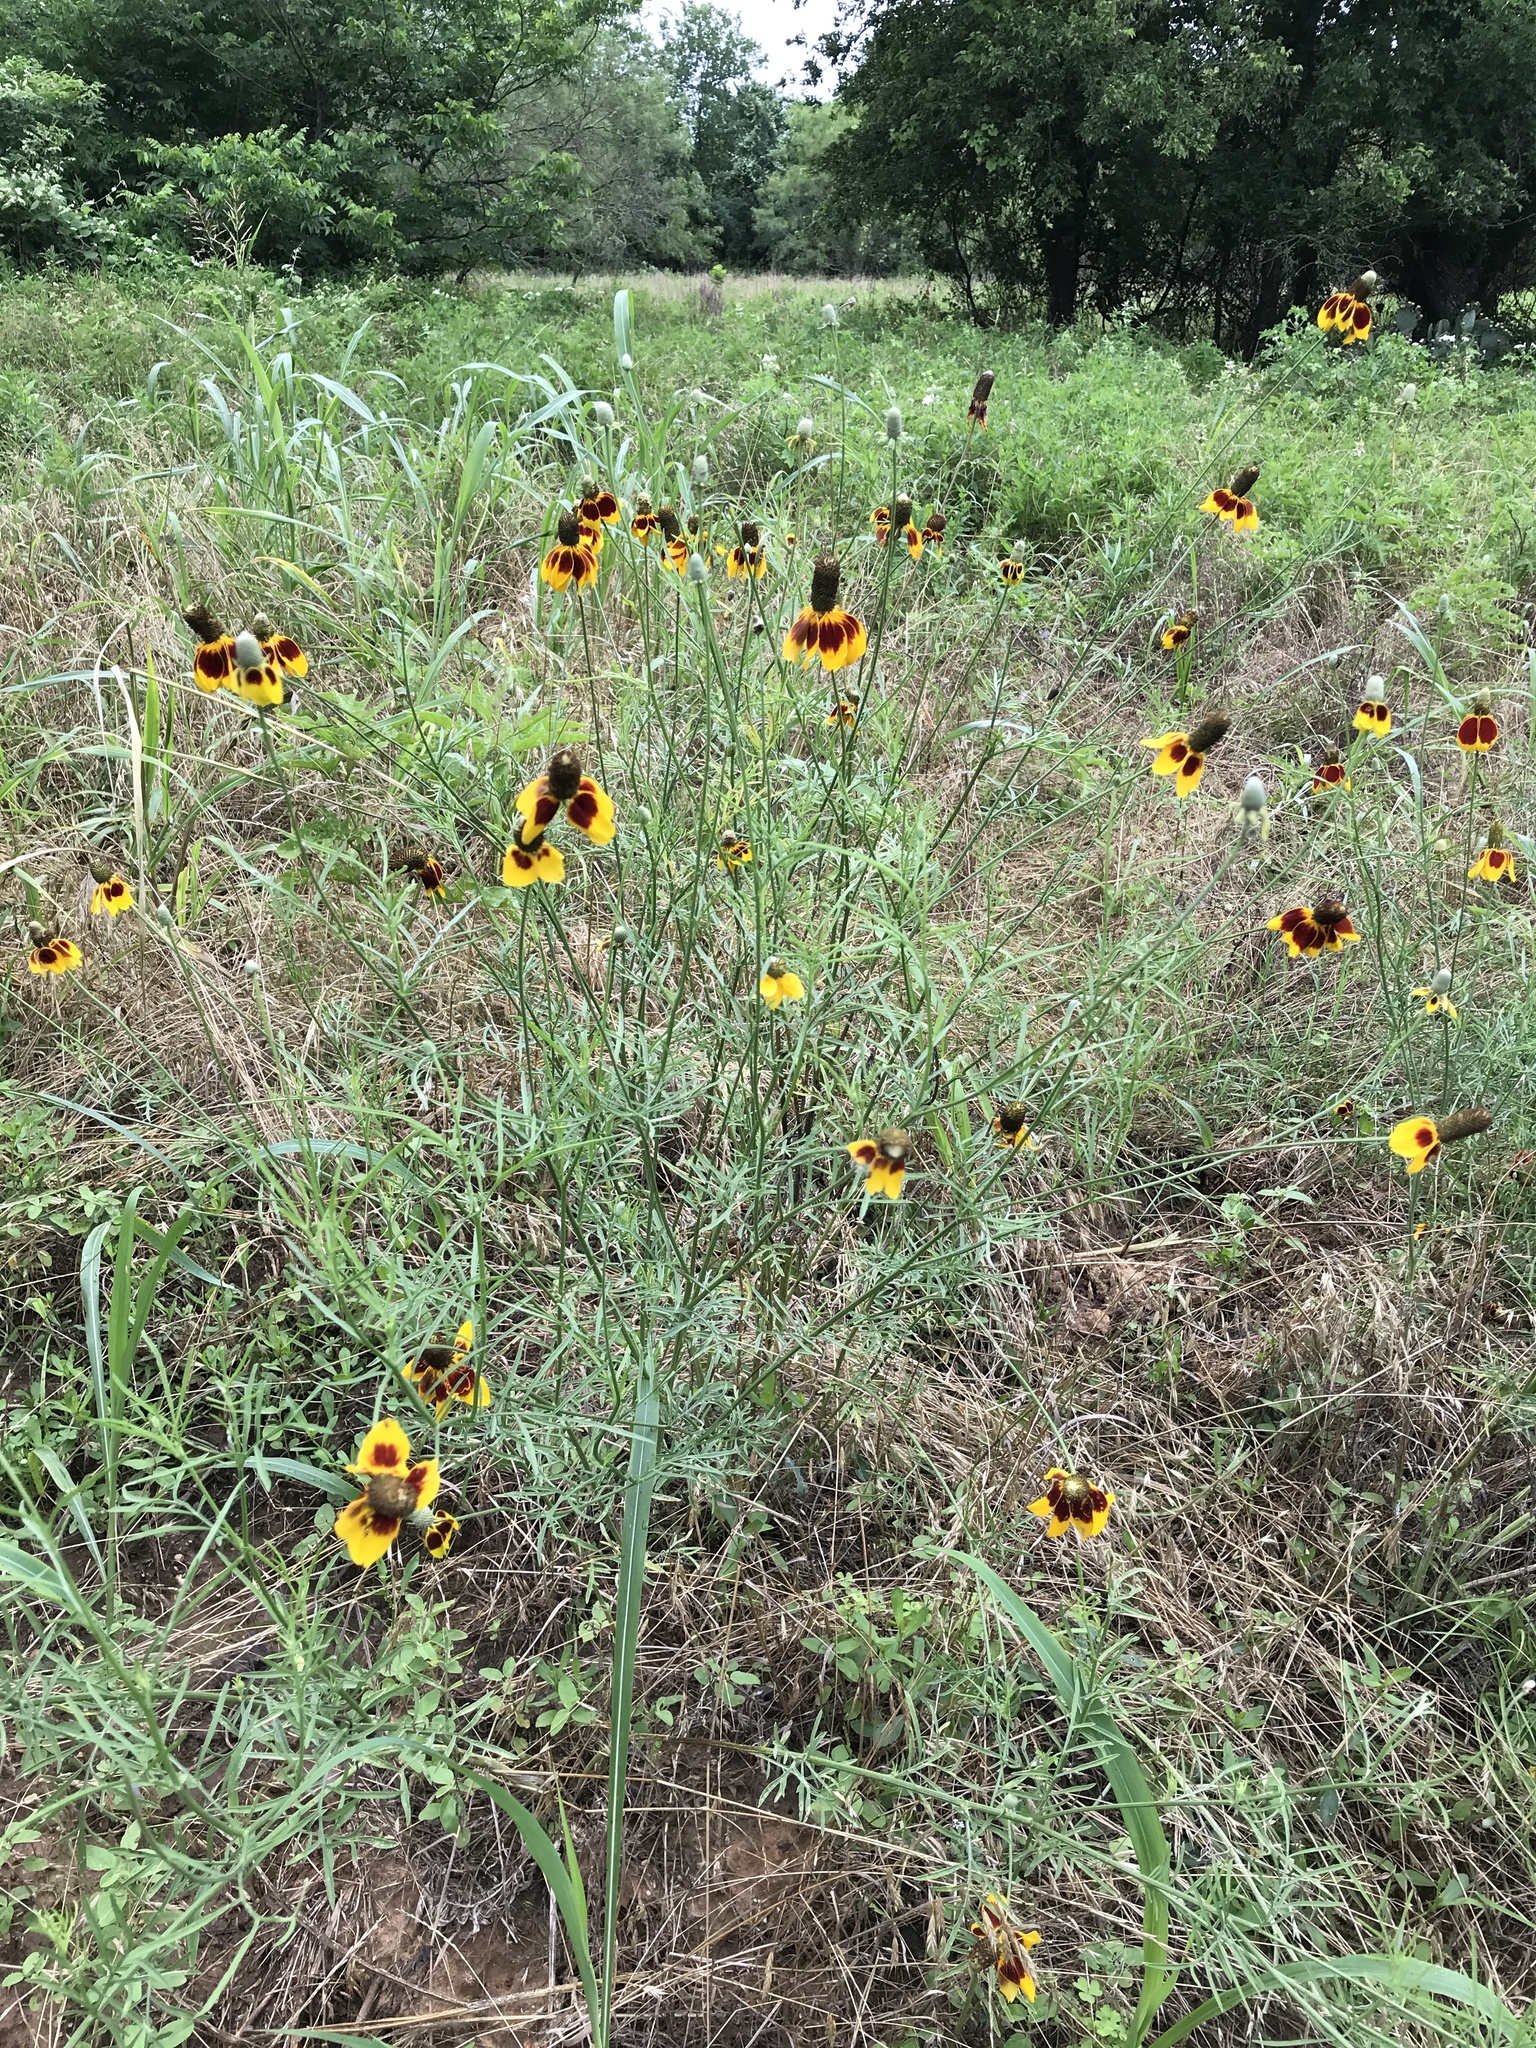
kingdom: Plantae
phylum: Tracheophyta
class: Magnoliopsida
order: Asterales
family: Asteraceae
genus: Ratibida
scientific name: Ratibida columnifera
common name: Prairie coneflower
